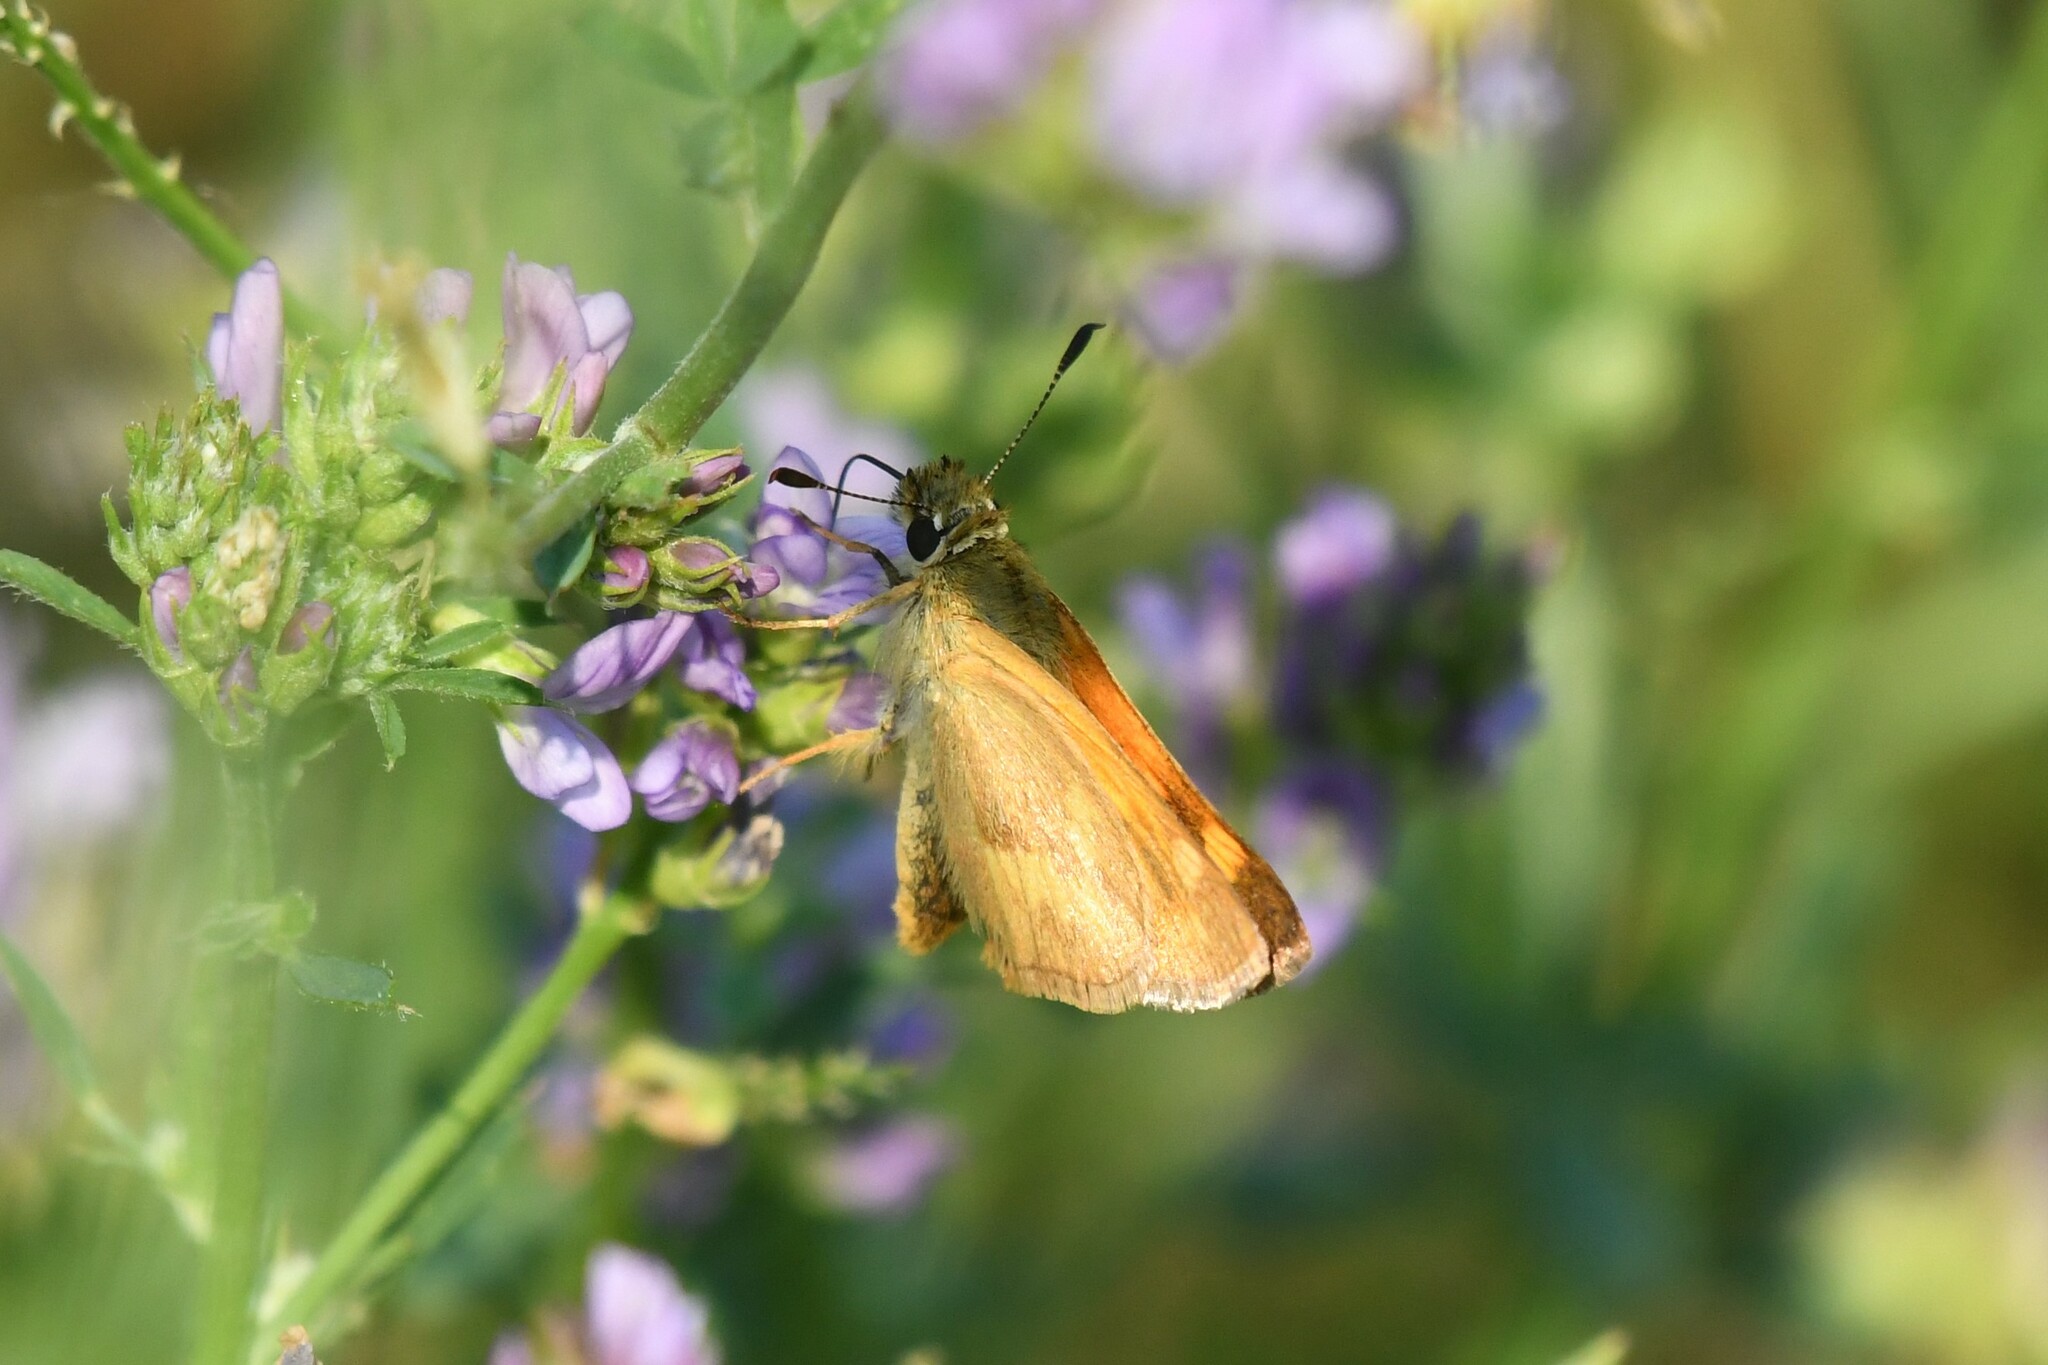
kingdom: Animalia
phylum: Arthropoda
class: Insecta
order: Lepidoptera
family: Hesperiidae
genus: Ochlodes
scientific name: Ochlodes sylvanoides
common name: Woodland skipper
